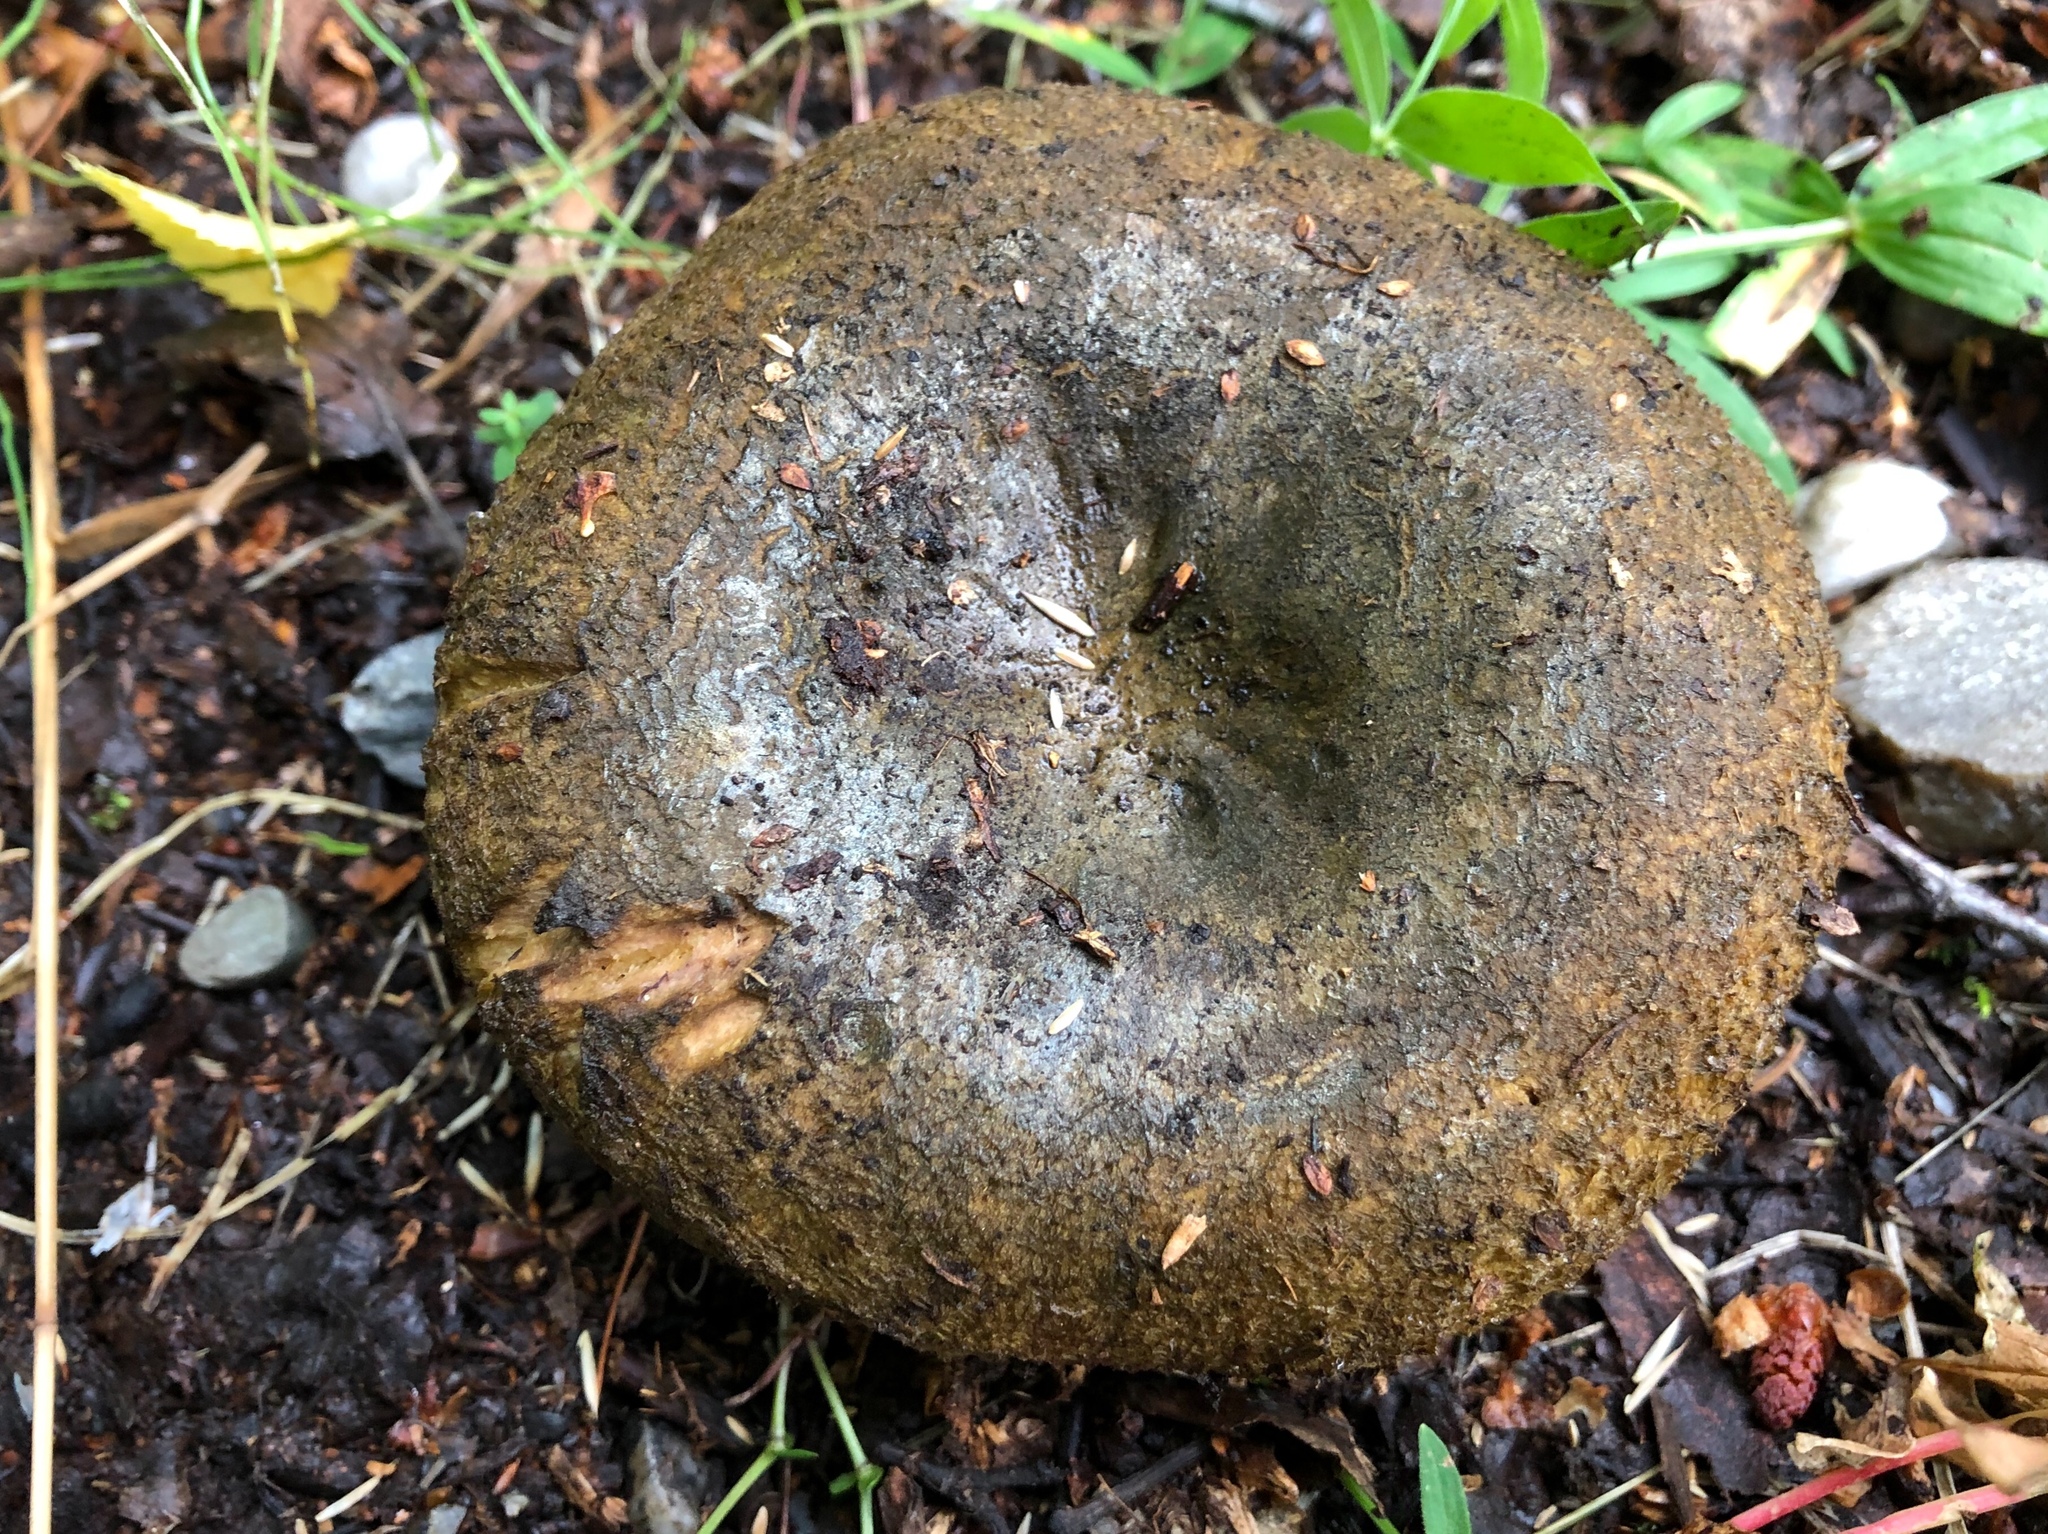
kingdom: Fungi
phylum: Basidiomycota
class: Agaricomycetes
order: Russulales
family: Russulaceae
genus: Lactarius
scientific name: Lactarius turpis
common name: Ugly milk-cap
